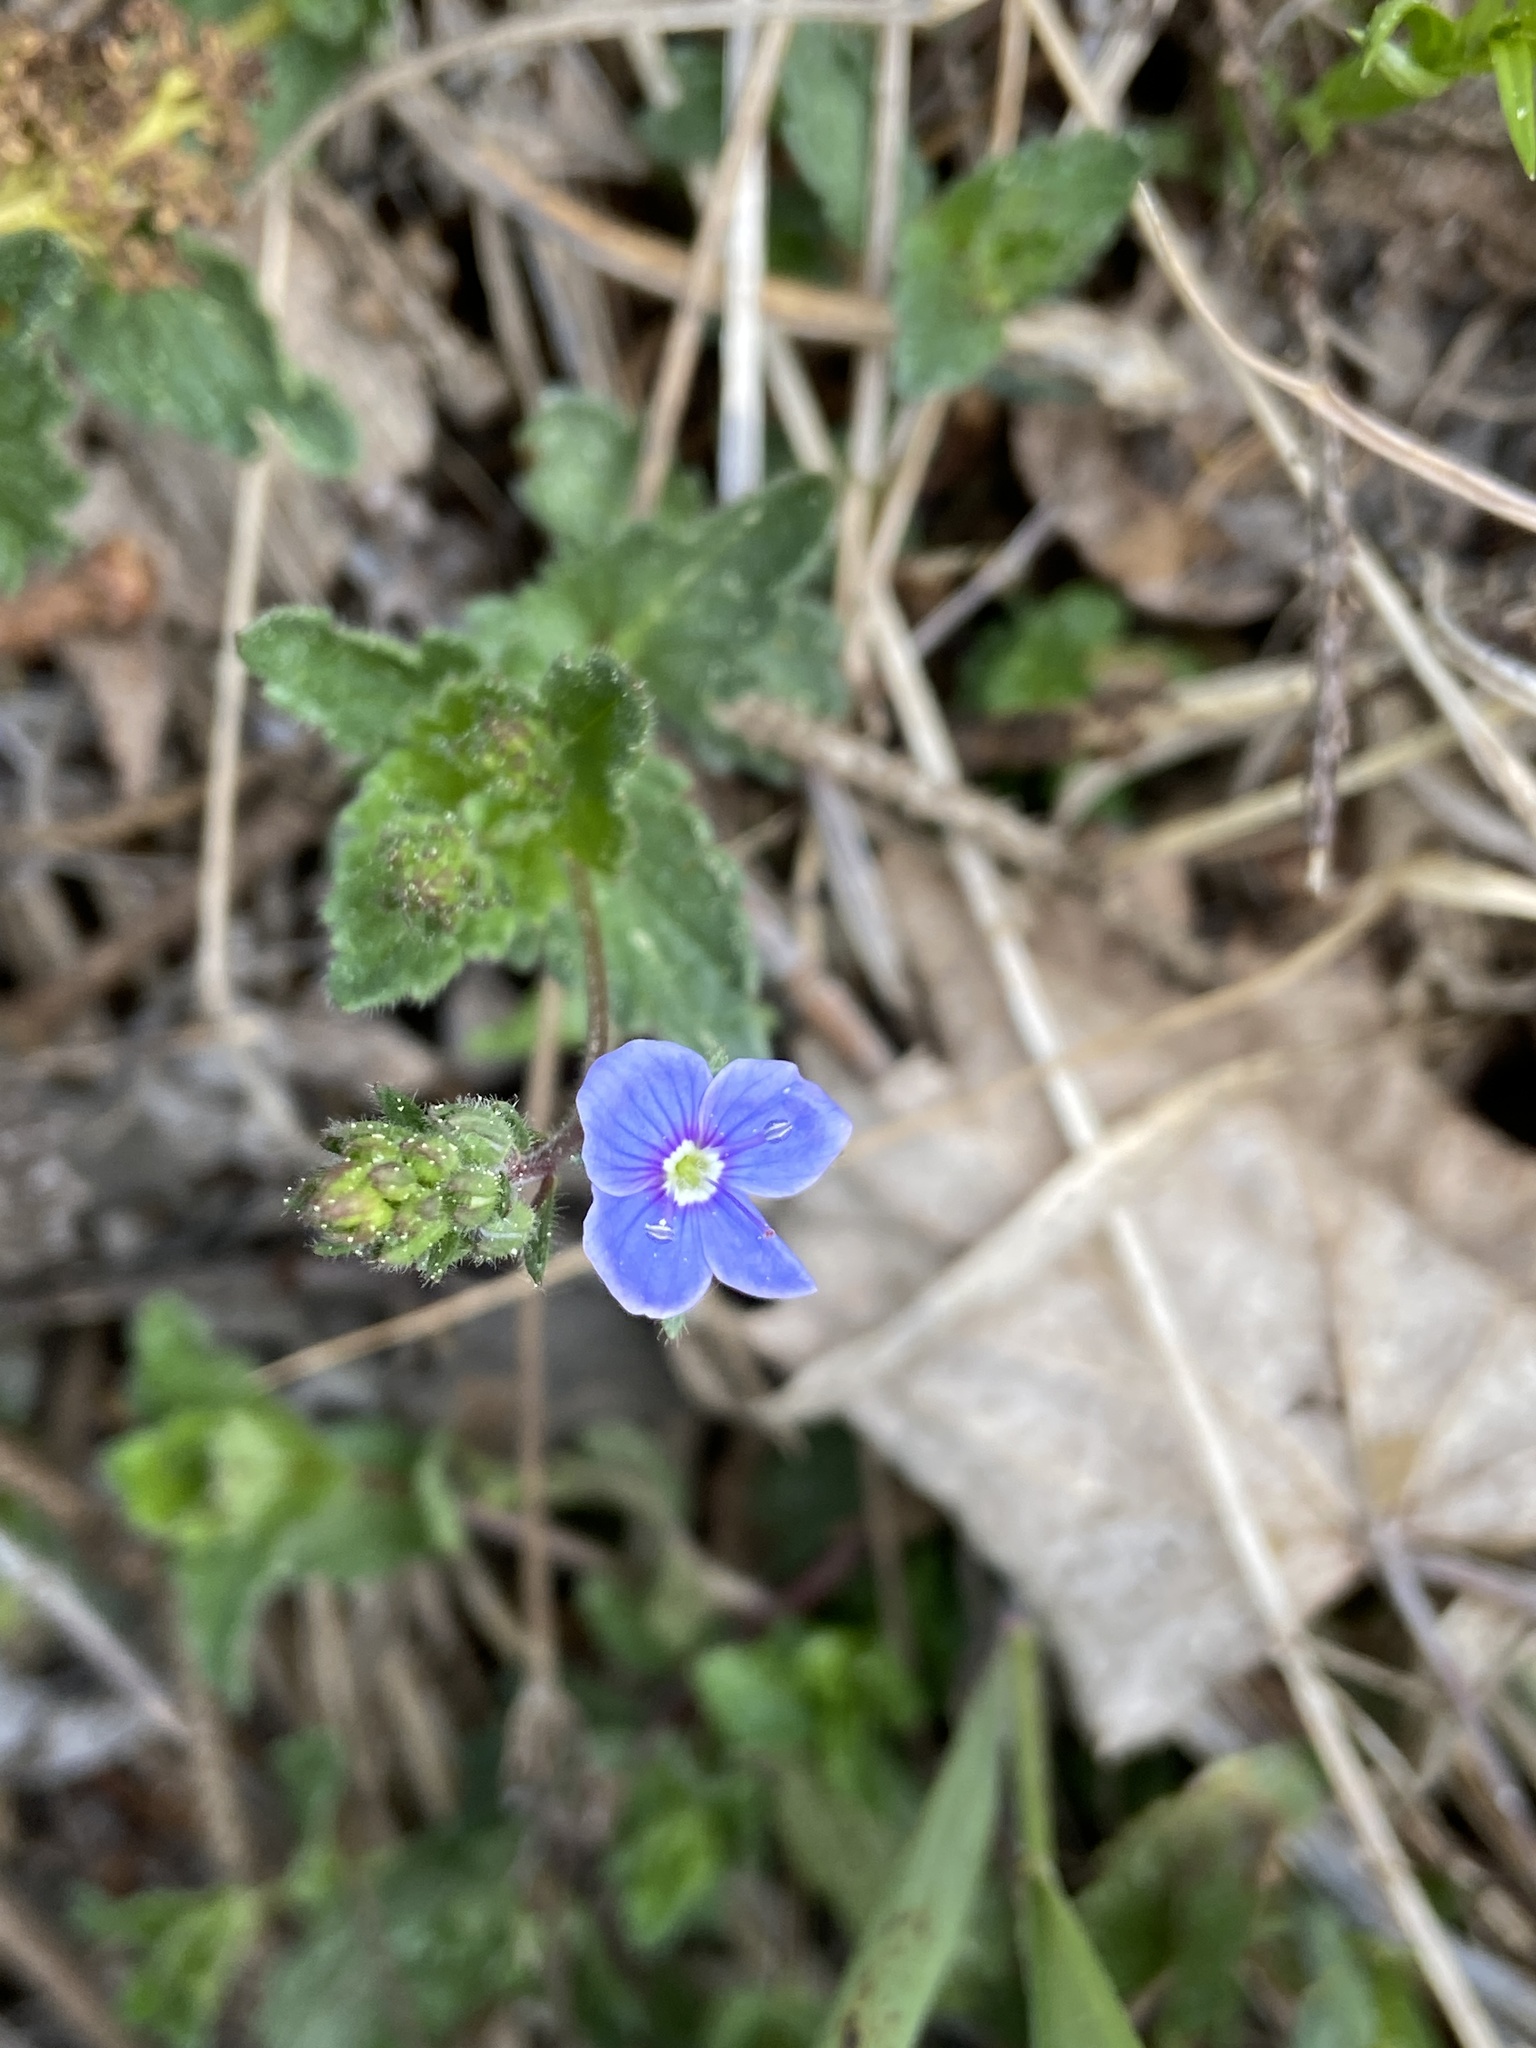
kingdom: Plantae
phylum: Tracheophyta
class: Magnoliopsida
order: Lamiales
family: Plantaginaceae
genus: Veronica
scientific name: Veronica chamaedrys
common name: Germander speedwell
